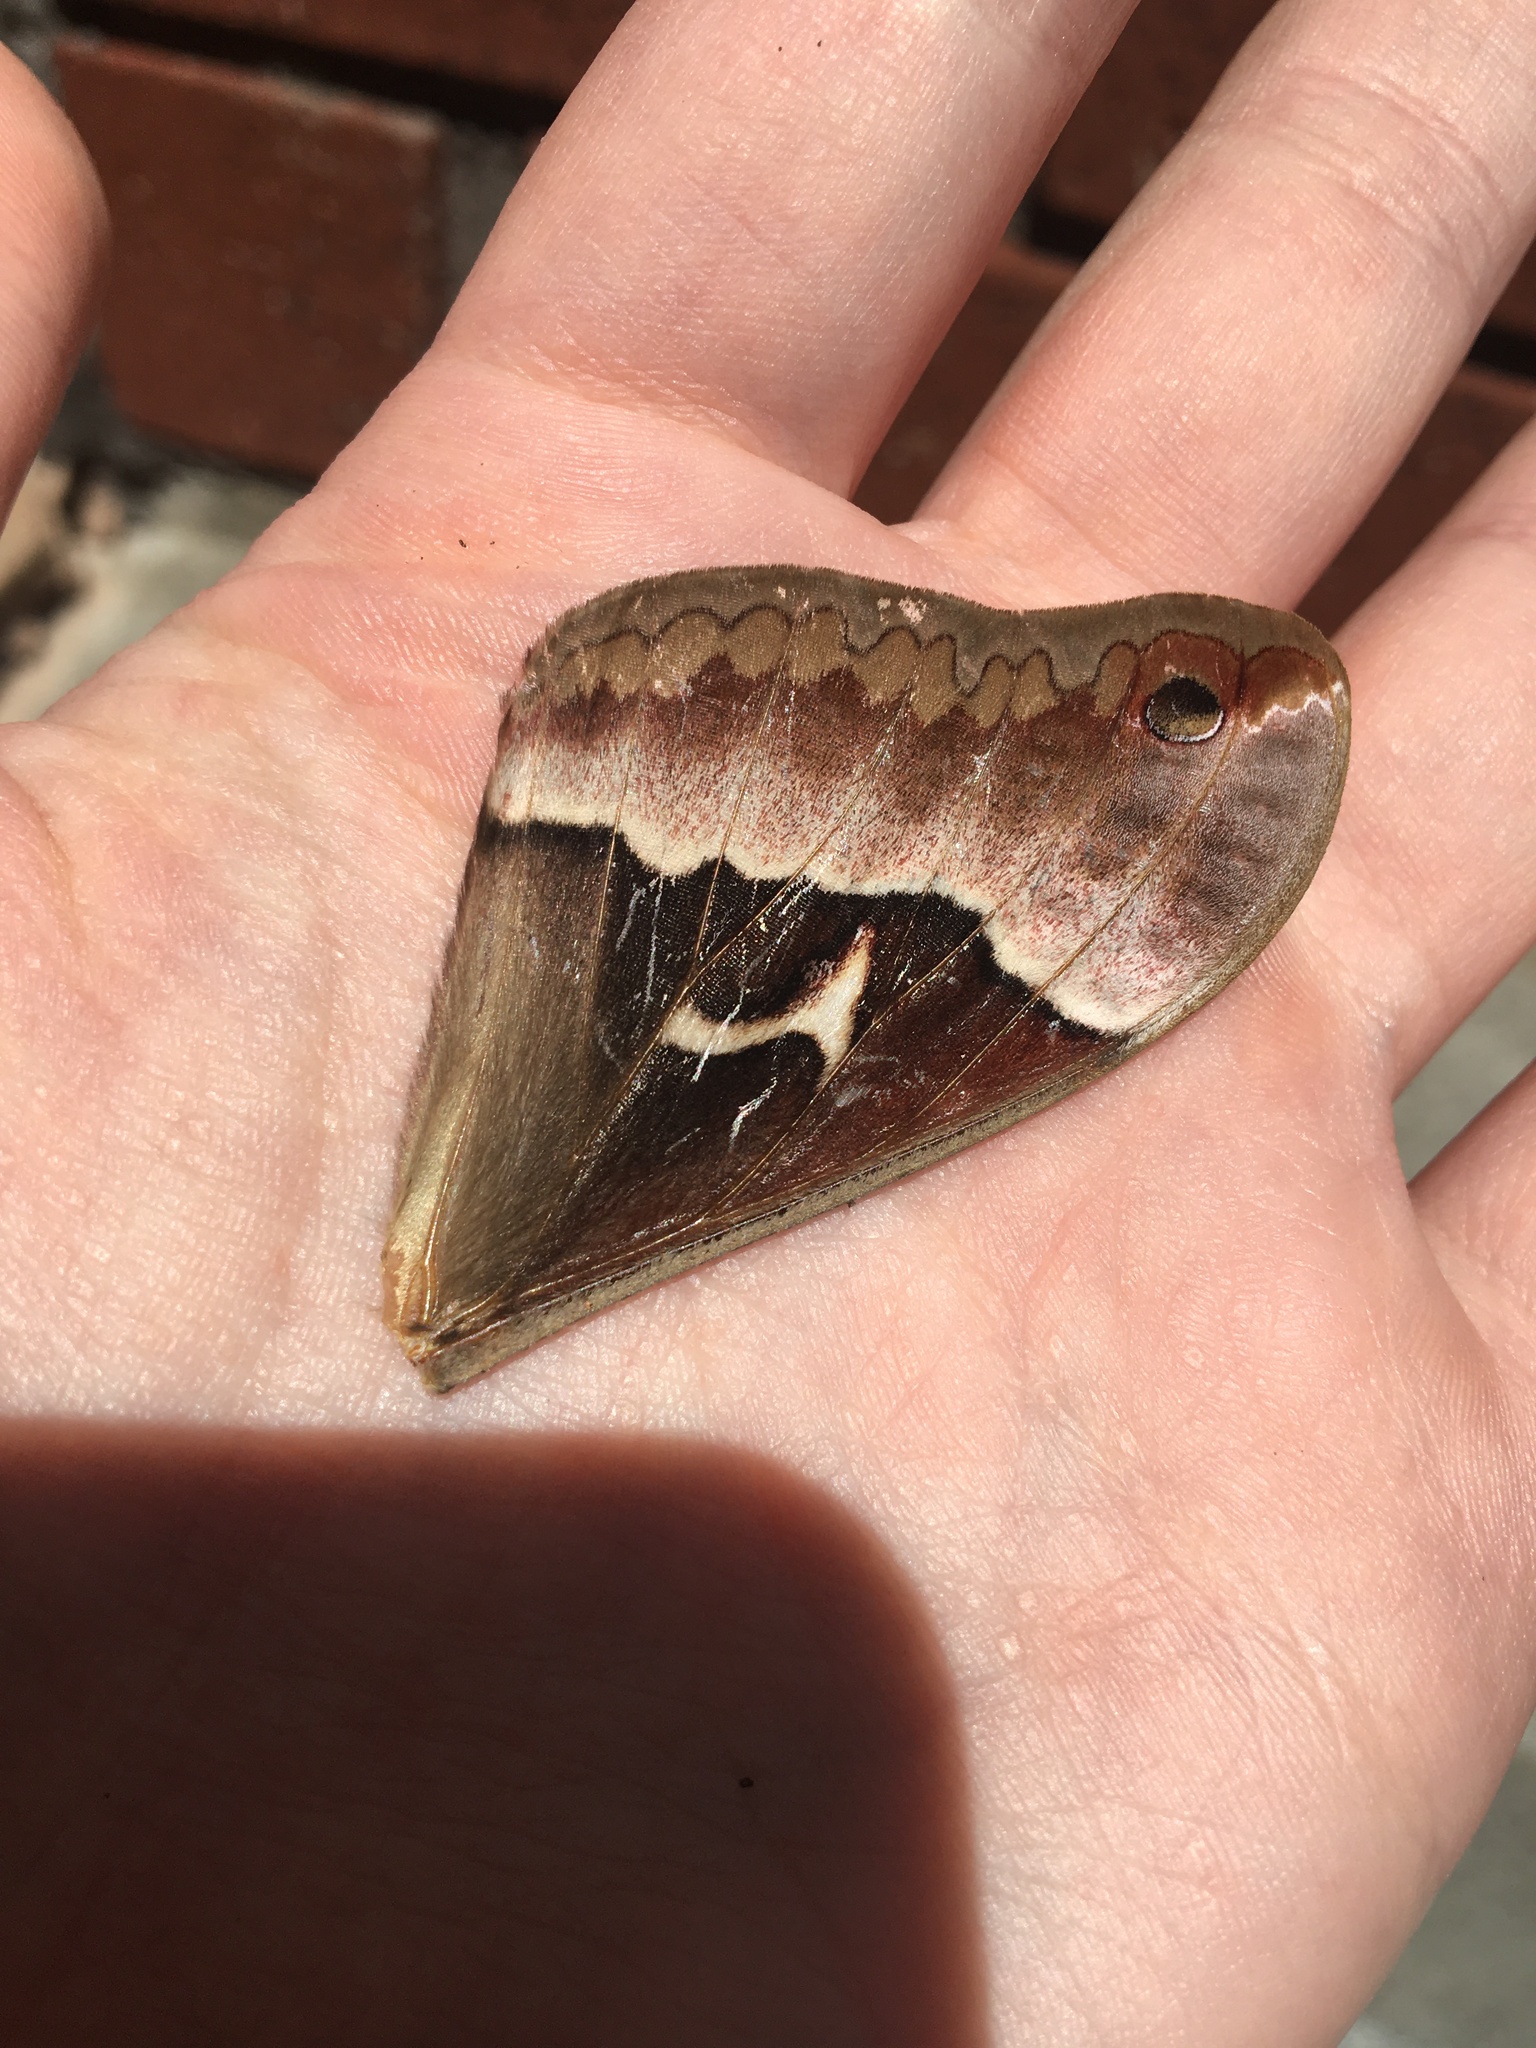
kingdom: Animalia
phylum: Arthropoda
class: Insecta
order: Lepidoptera
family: Saturniidae
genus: Callosamia
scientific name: Callosamia angulifera
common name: Tulip tree silkmoth
